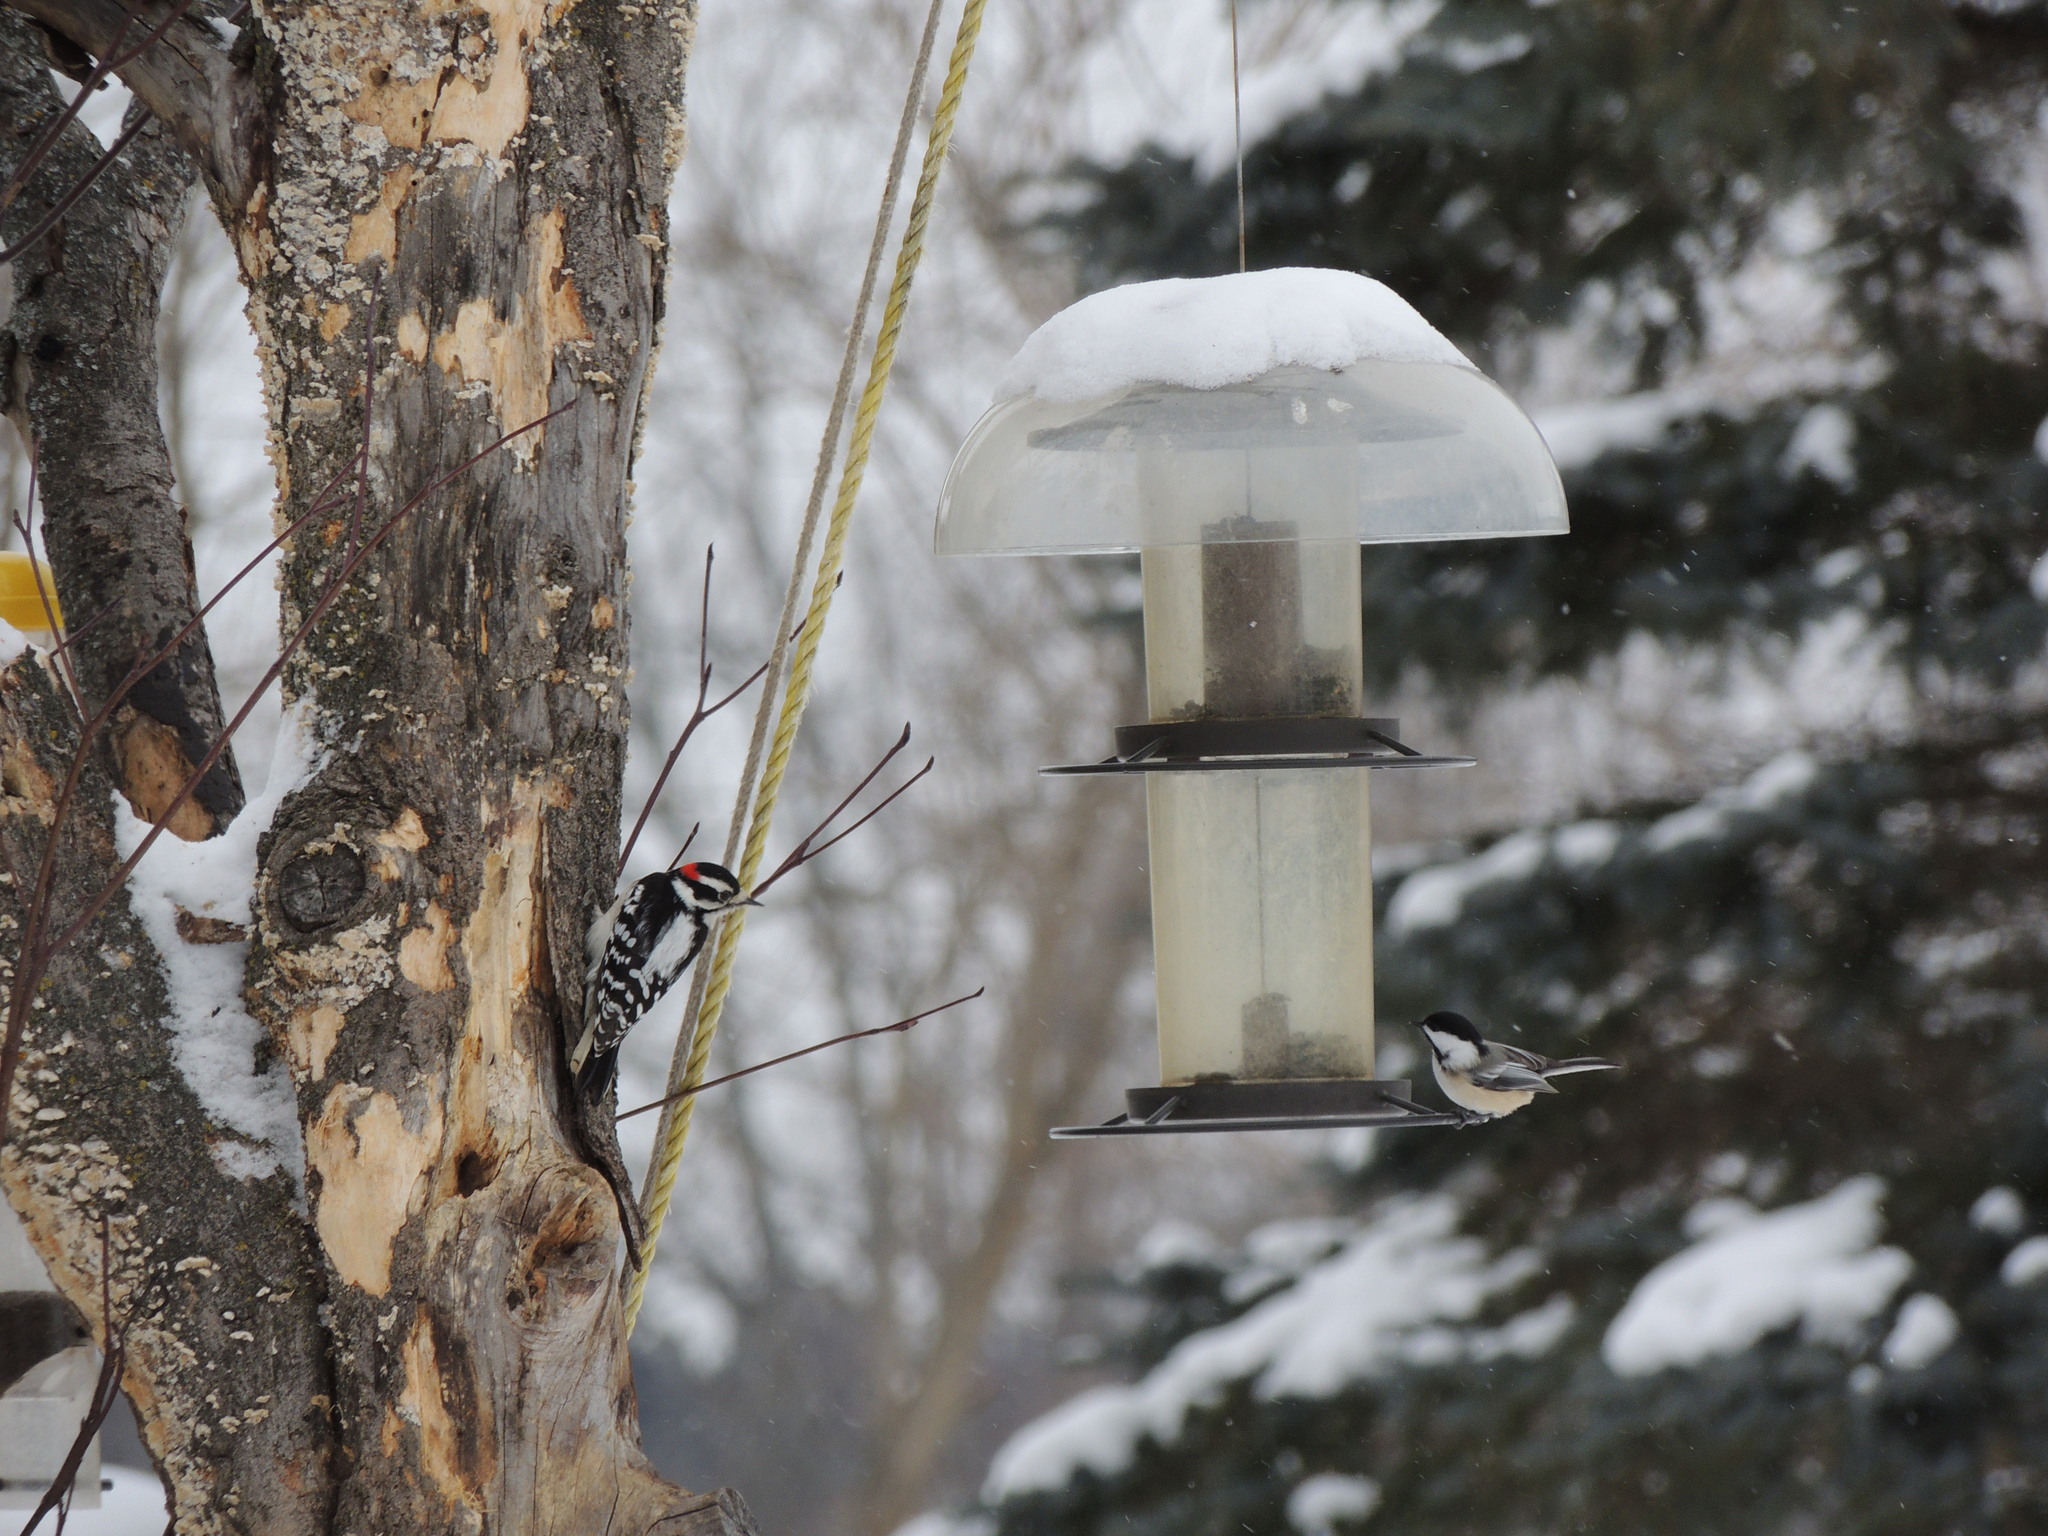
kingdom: Animalia
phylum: Chordata
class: Aves
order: Piciformes
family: Picidae
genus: Dryobates
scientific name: Dryobates pubescens
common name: Downy woodpecker
